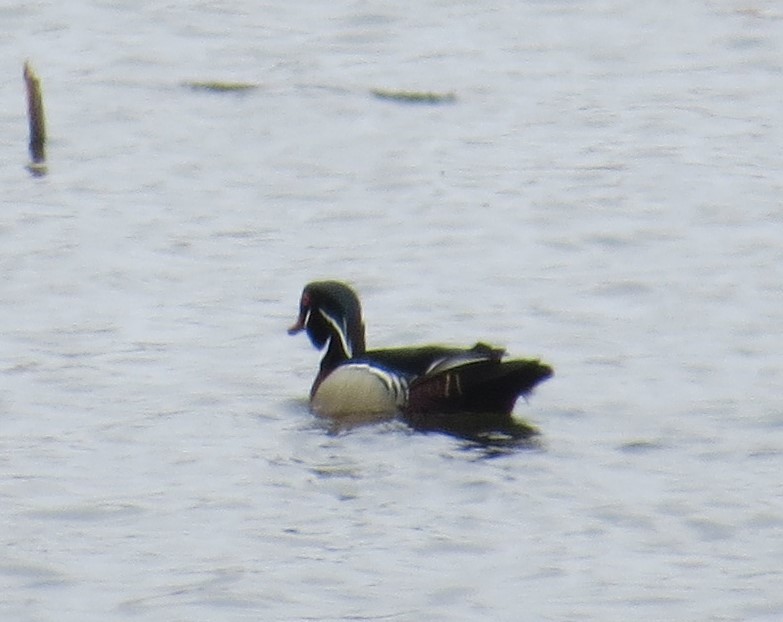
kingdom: Animalia
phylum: Chordata
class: Aves
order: Anseriformes
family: Anatidae
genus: Aix
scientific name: Aix sponsa
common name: Wood duck
